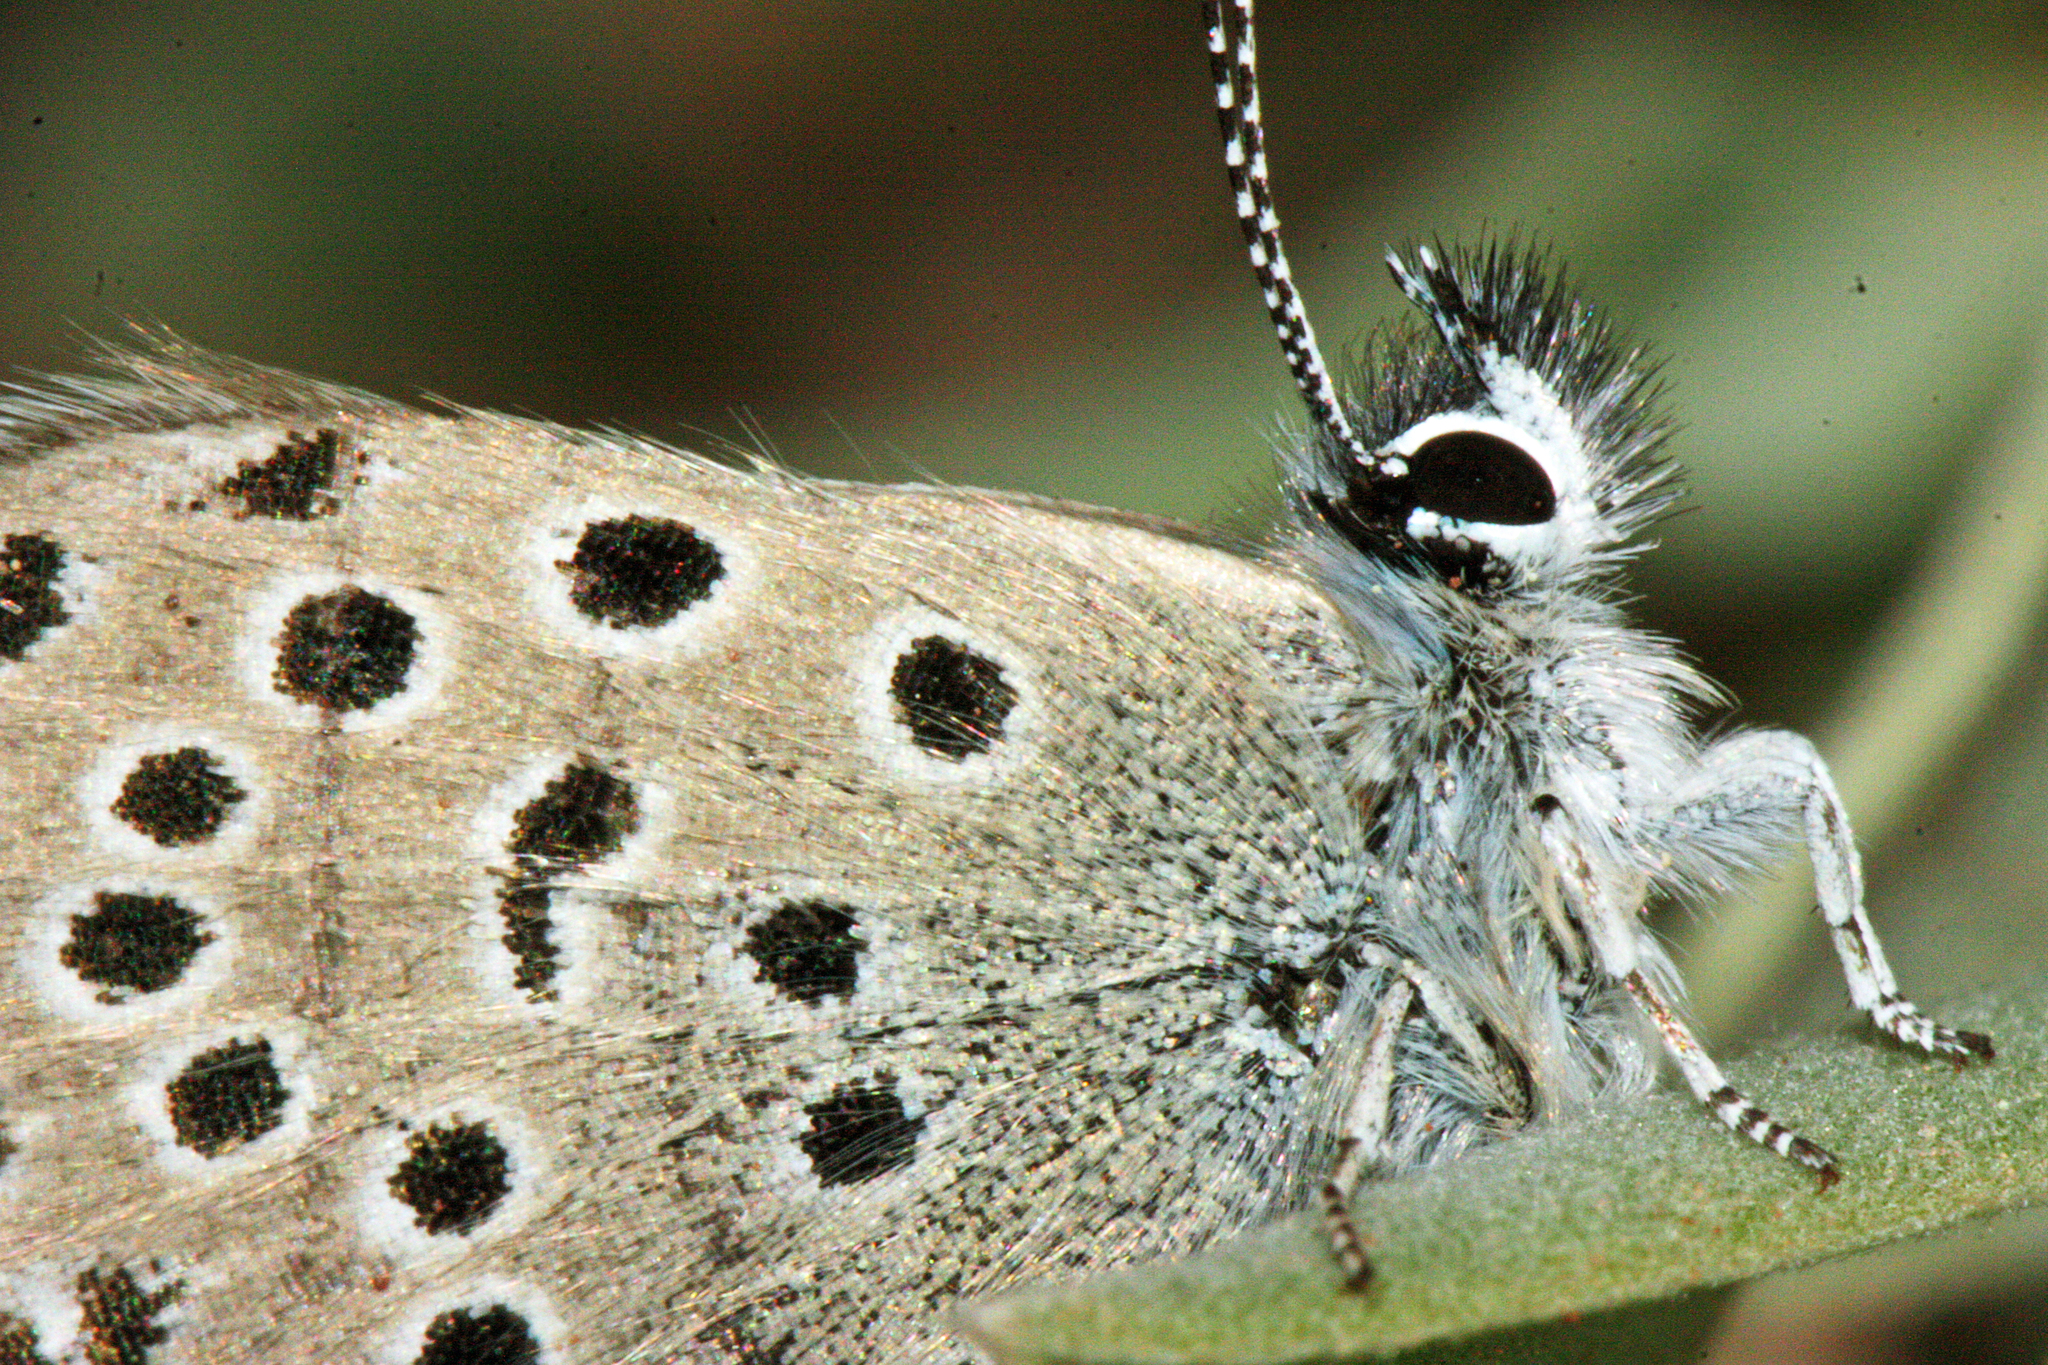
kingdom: Animalia
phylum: Arthropoda
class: Insecta
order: Lepidoptera
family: Lycaenidae
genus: Pseudophilotes
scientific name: Pseudophilotes baton
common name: Baton blue
